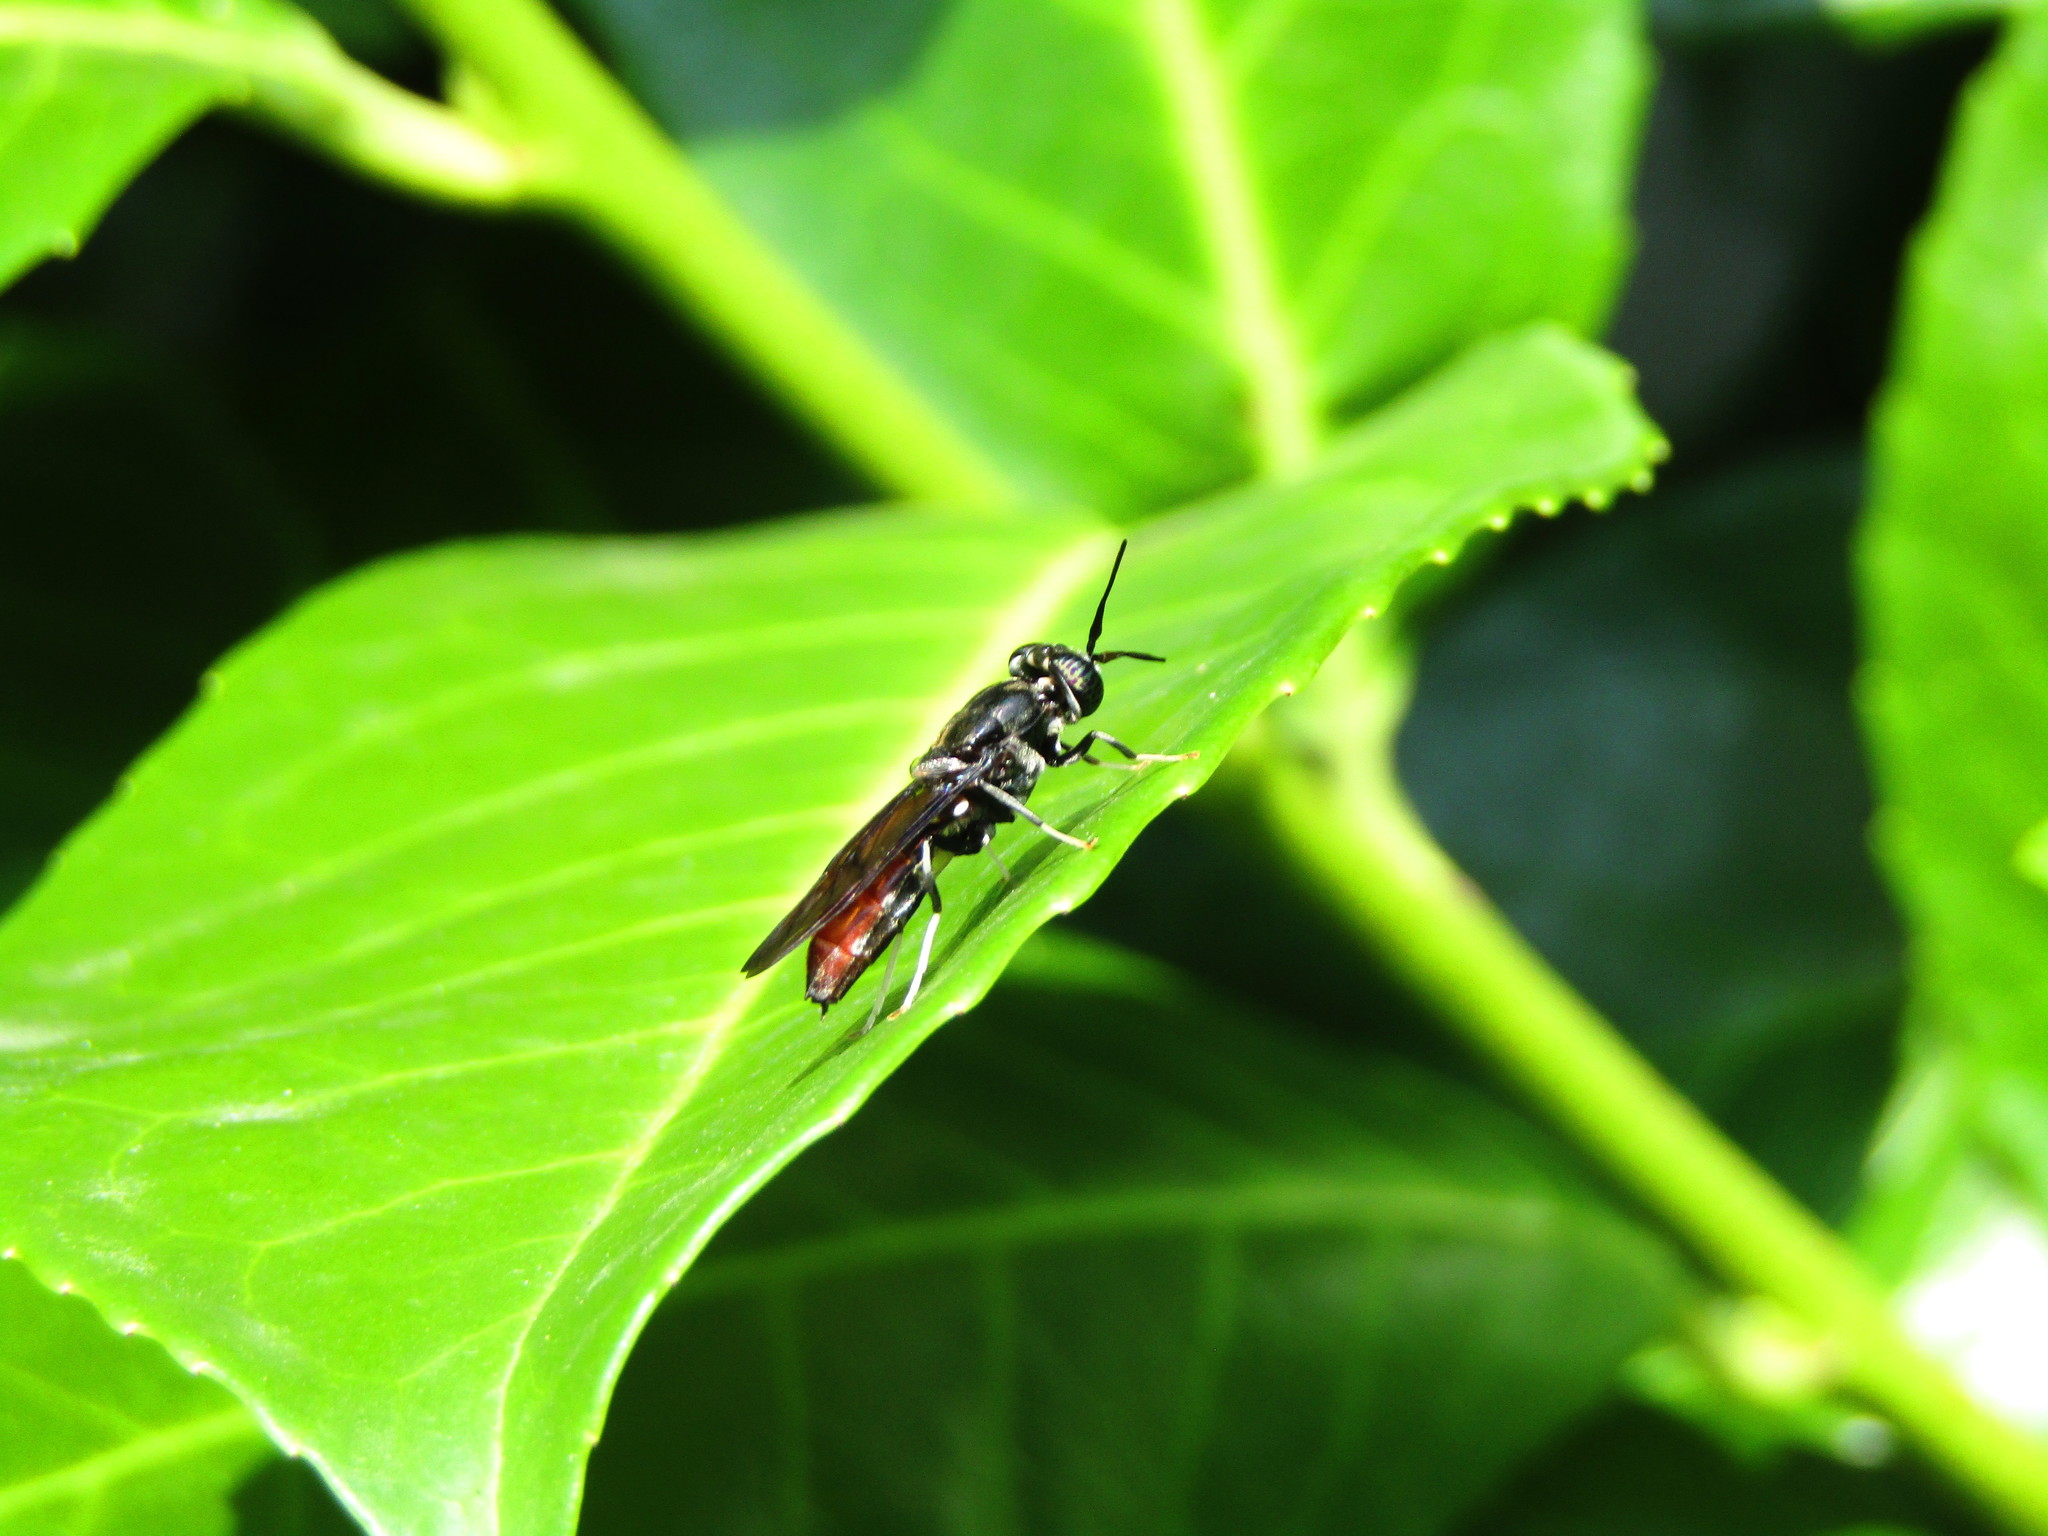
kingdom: Animalia
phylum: Arthropoda
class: Insecta
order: Diptera
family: Stratiomyidae
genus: Hermetia
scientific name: Hermetia illucens
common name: Black soldier fly
